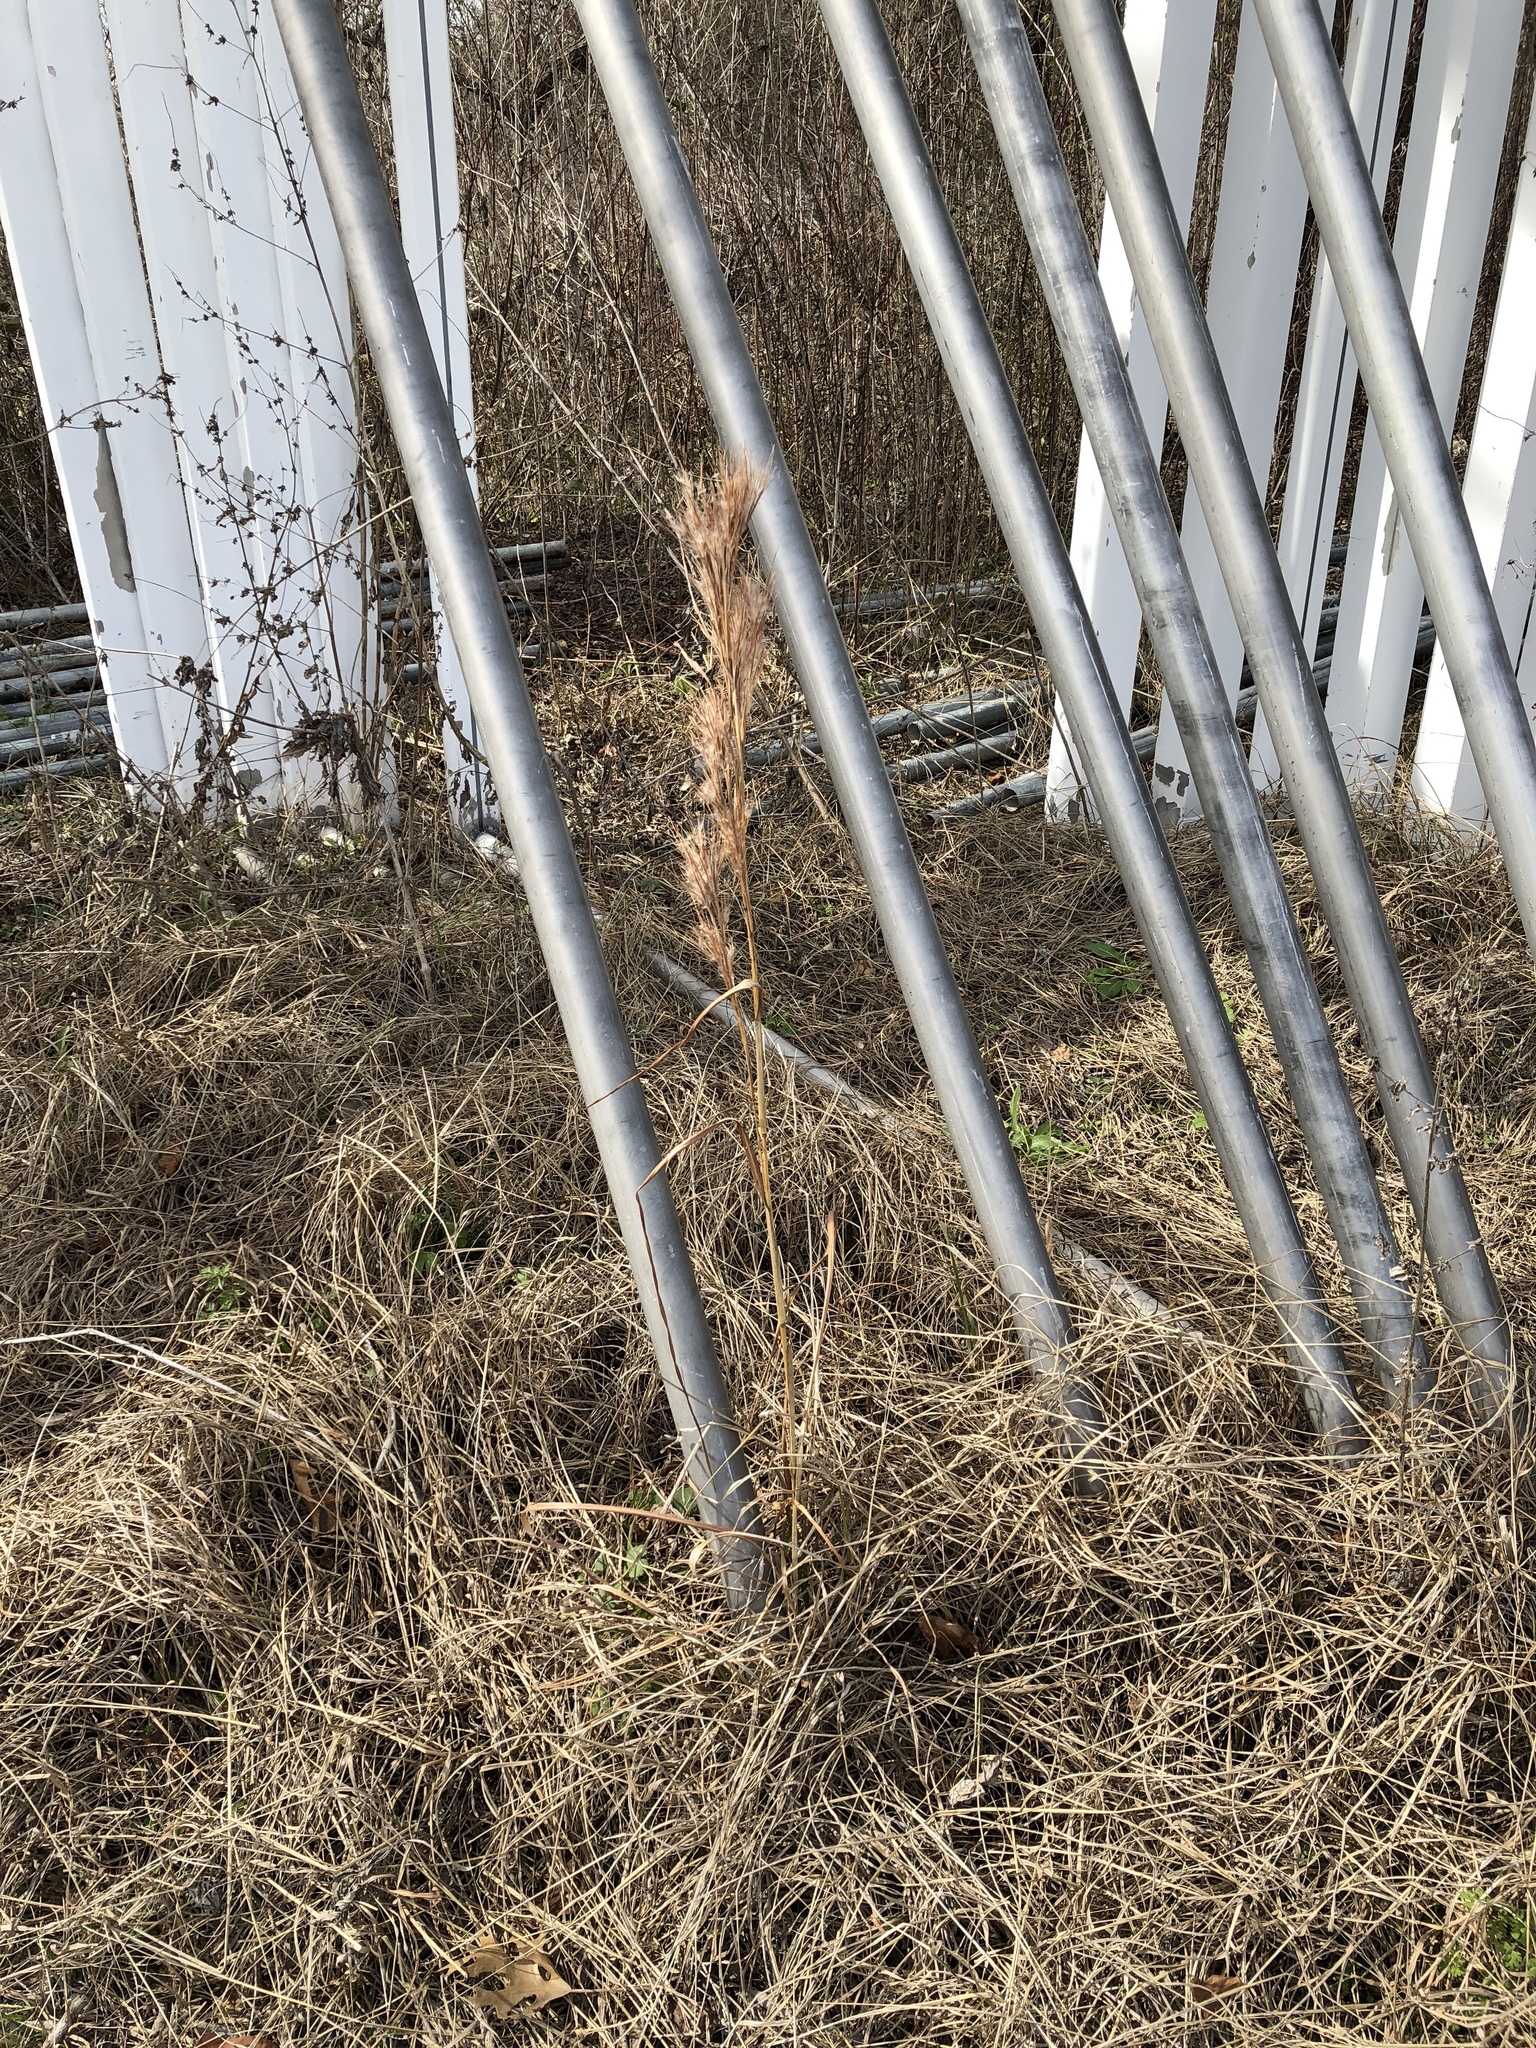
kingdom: Plantae
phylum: Tracheophyta
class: Liliopsida
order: Poales
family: Poaceae
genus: Andropogon
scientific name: Andropogon tenuispatheus
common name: Bushy bluestem
